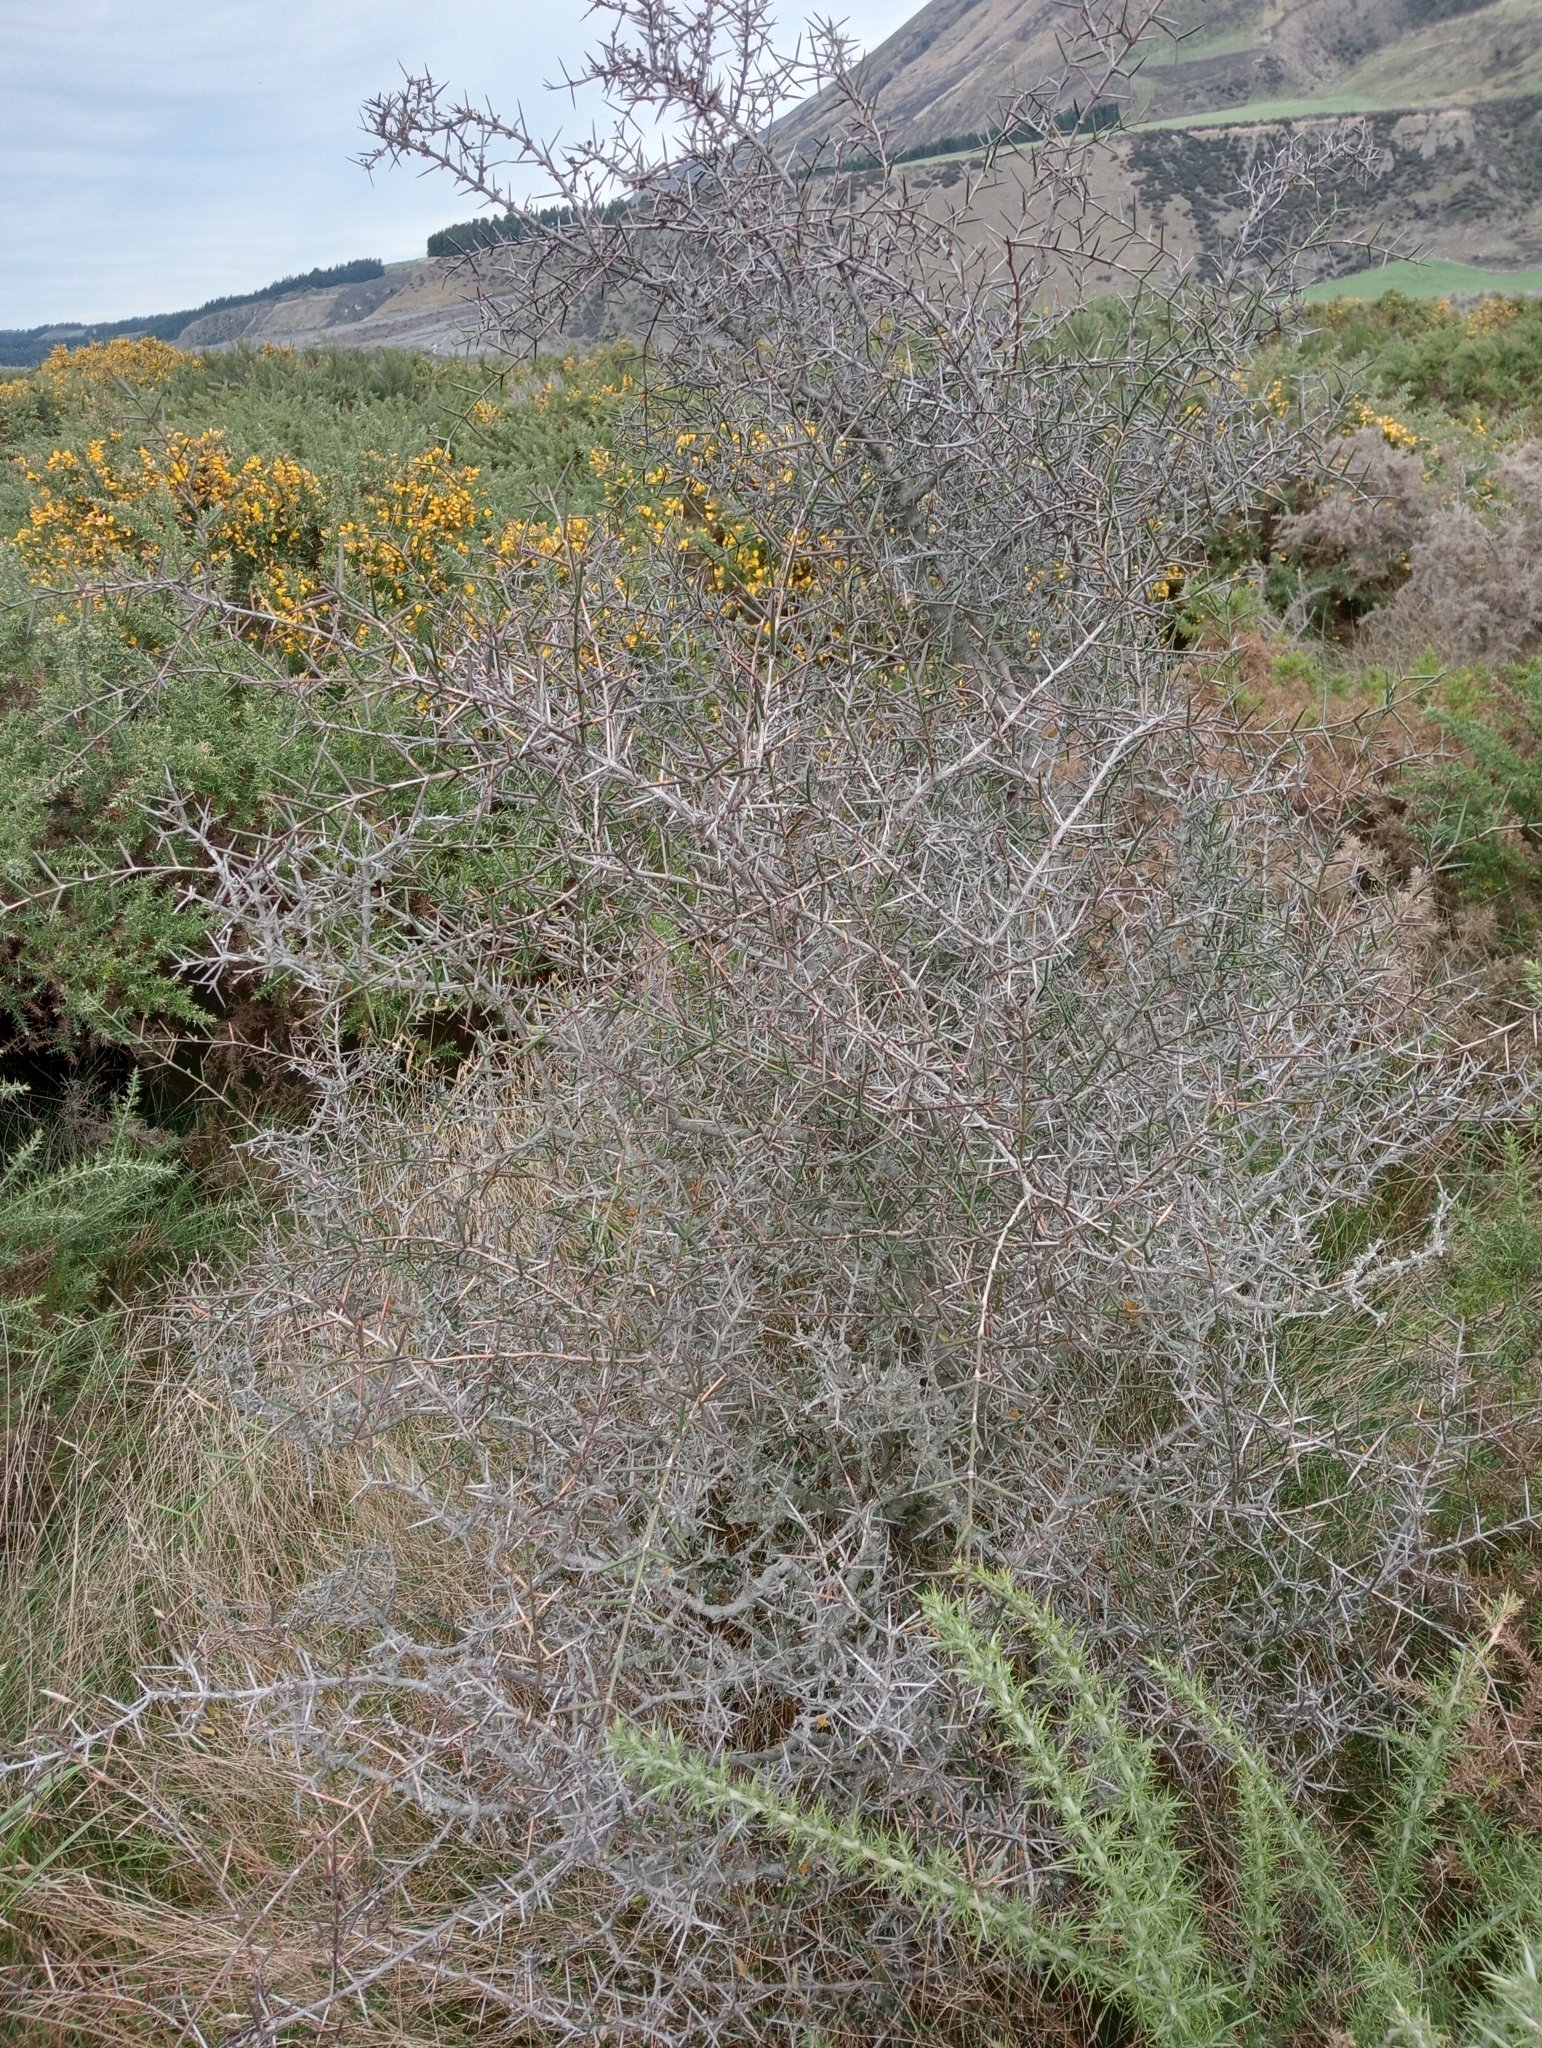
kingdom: Plantae
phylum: Tracheophyta
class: Magnoliopsida
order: Rosales
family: Rhamnaceae
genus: Discaria
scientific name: Discaria toumatou
